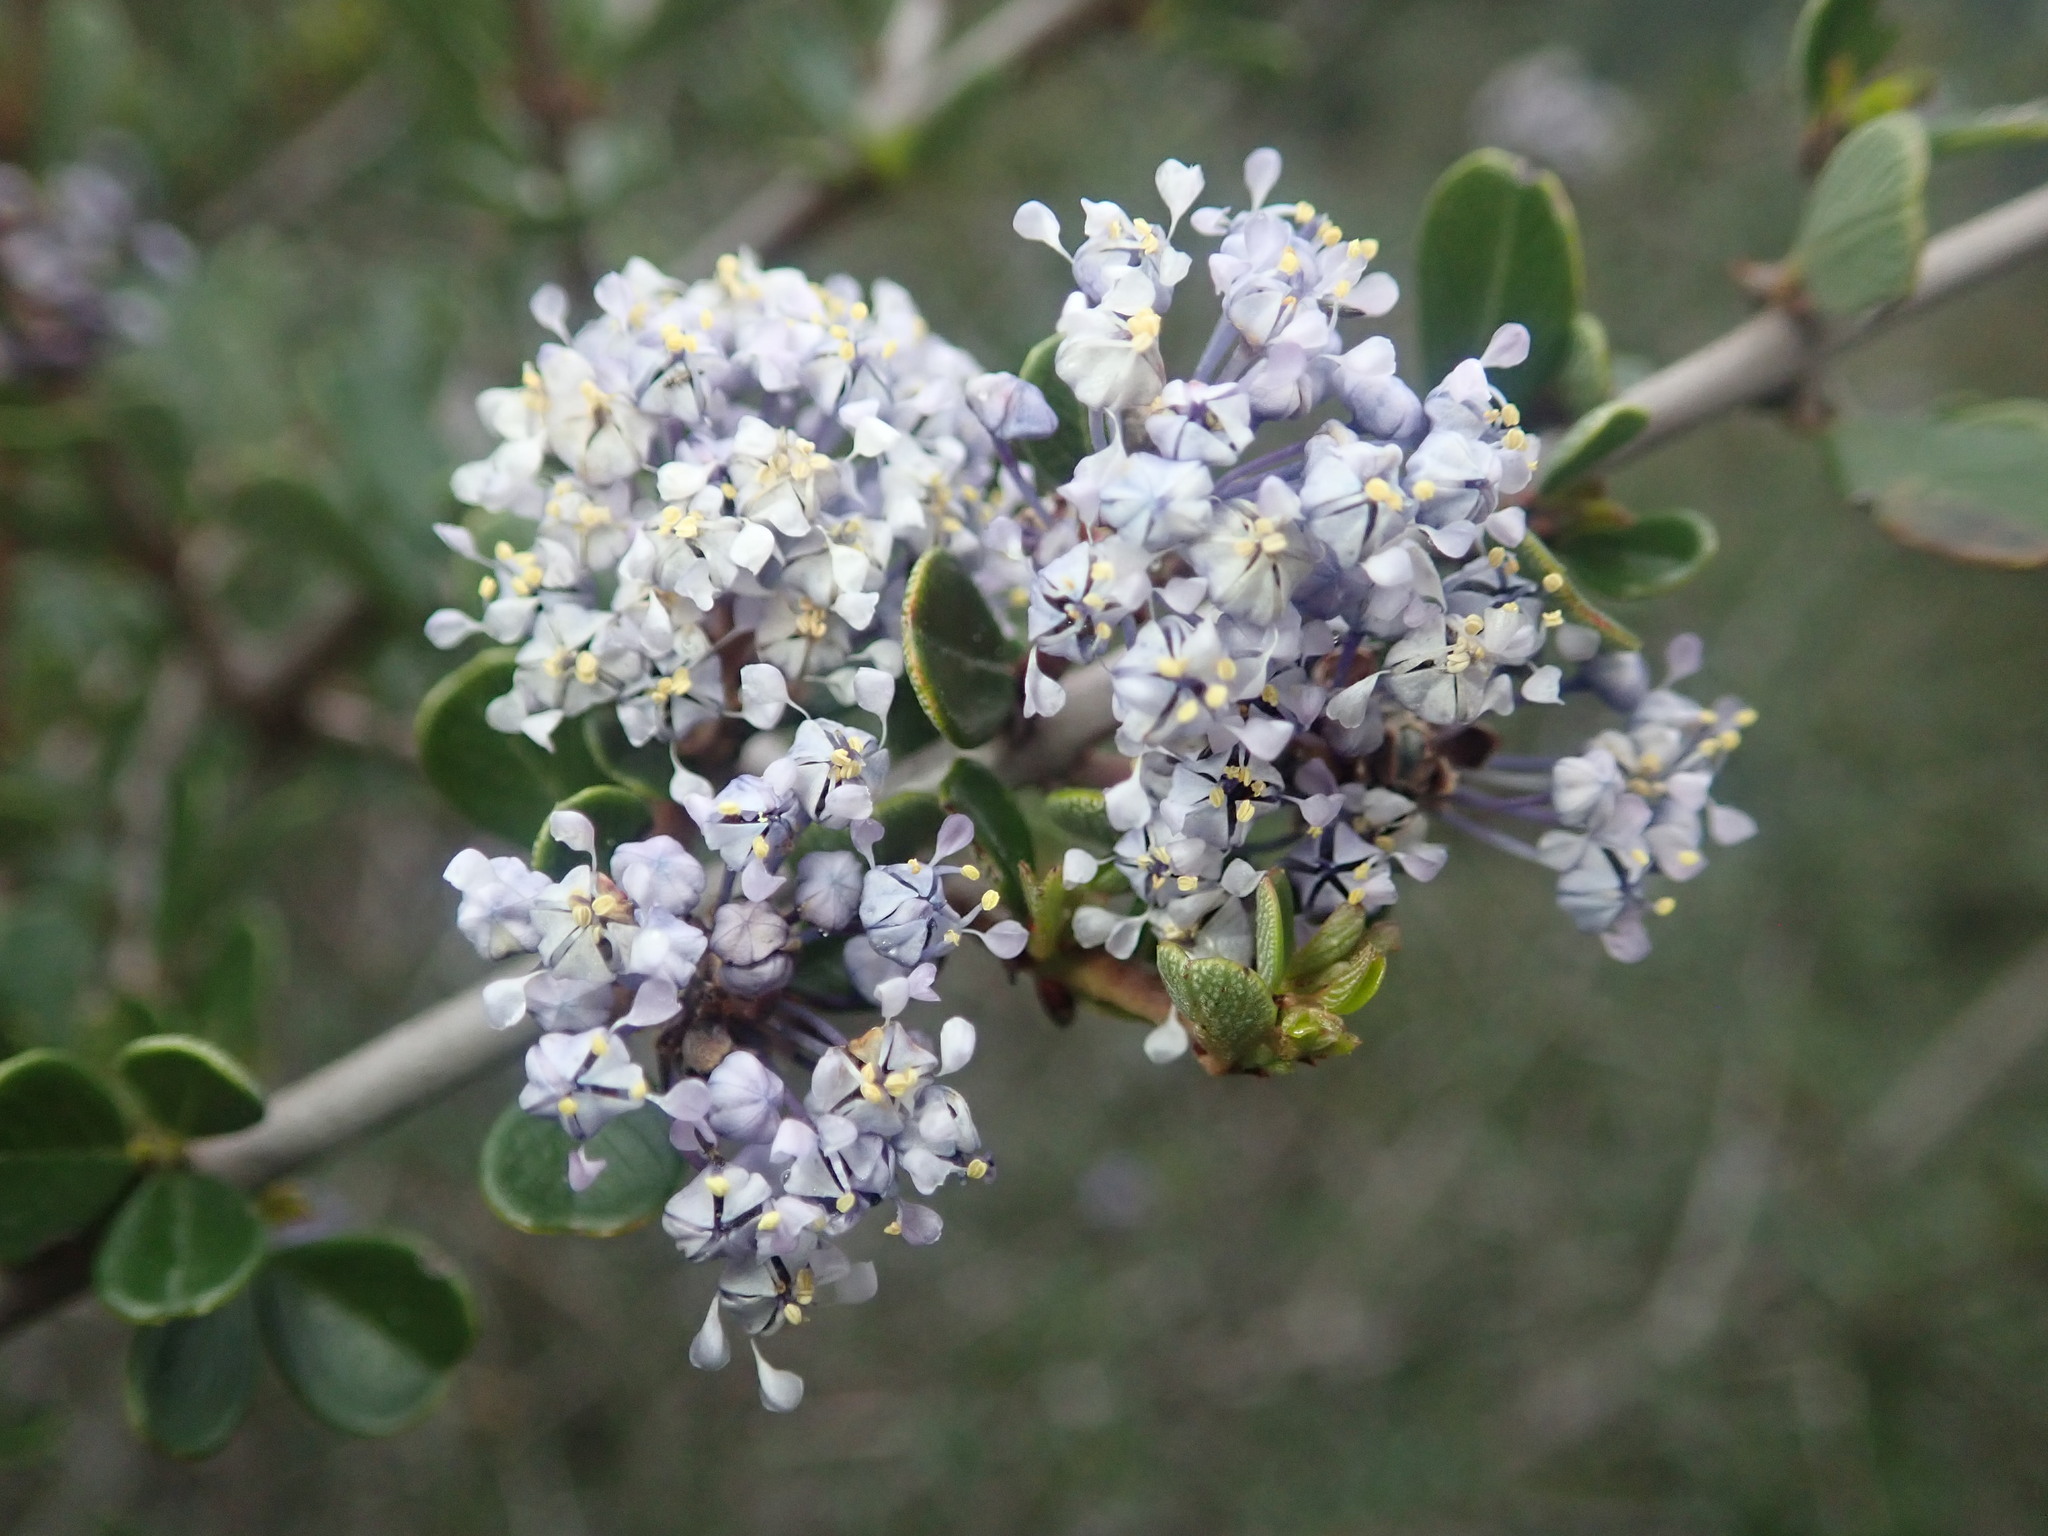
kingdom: Plantae
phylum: Tracheophyta
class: Magnoliopsida
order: Rosales
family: Rhamnaceae
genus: Ceanothus
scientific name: Ceanothus cuneatus
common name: Cuneate ceanothus
